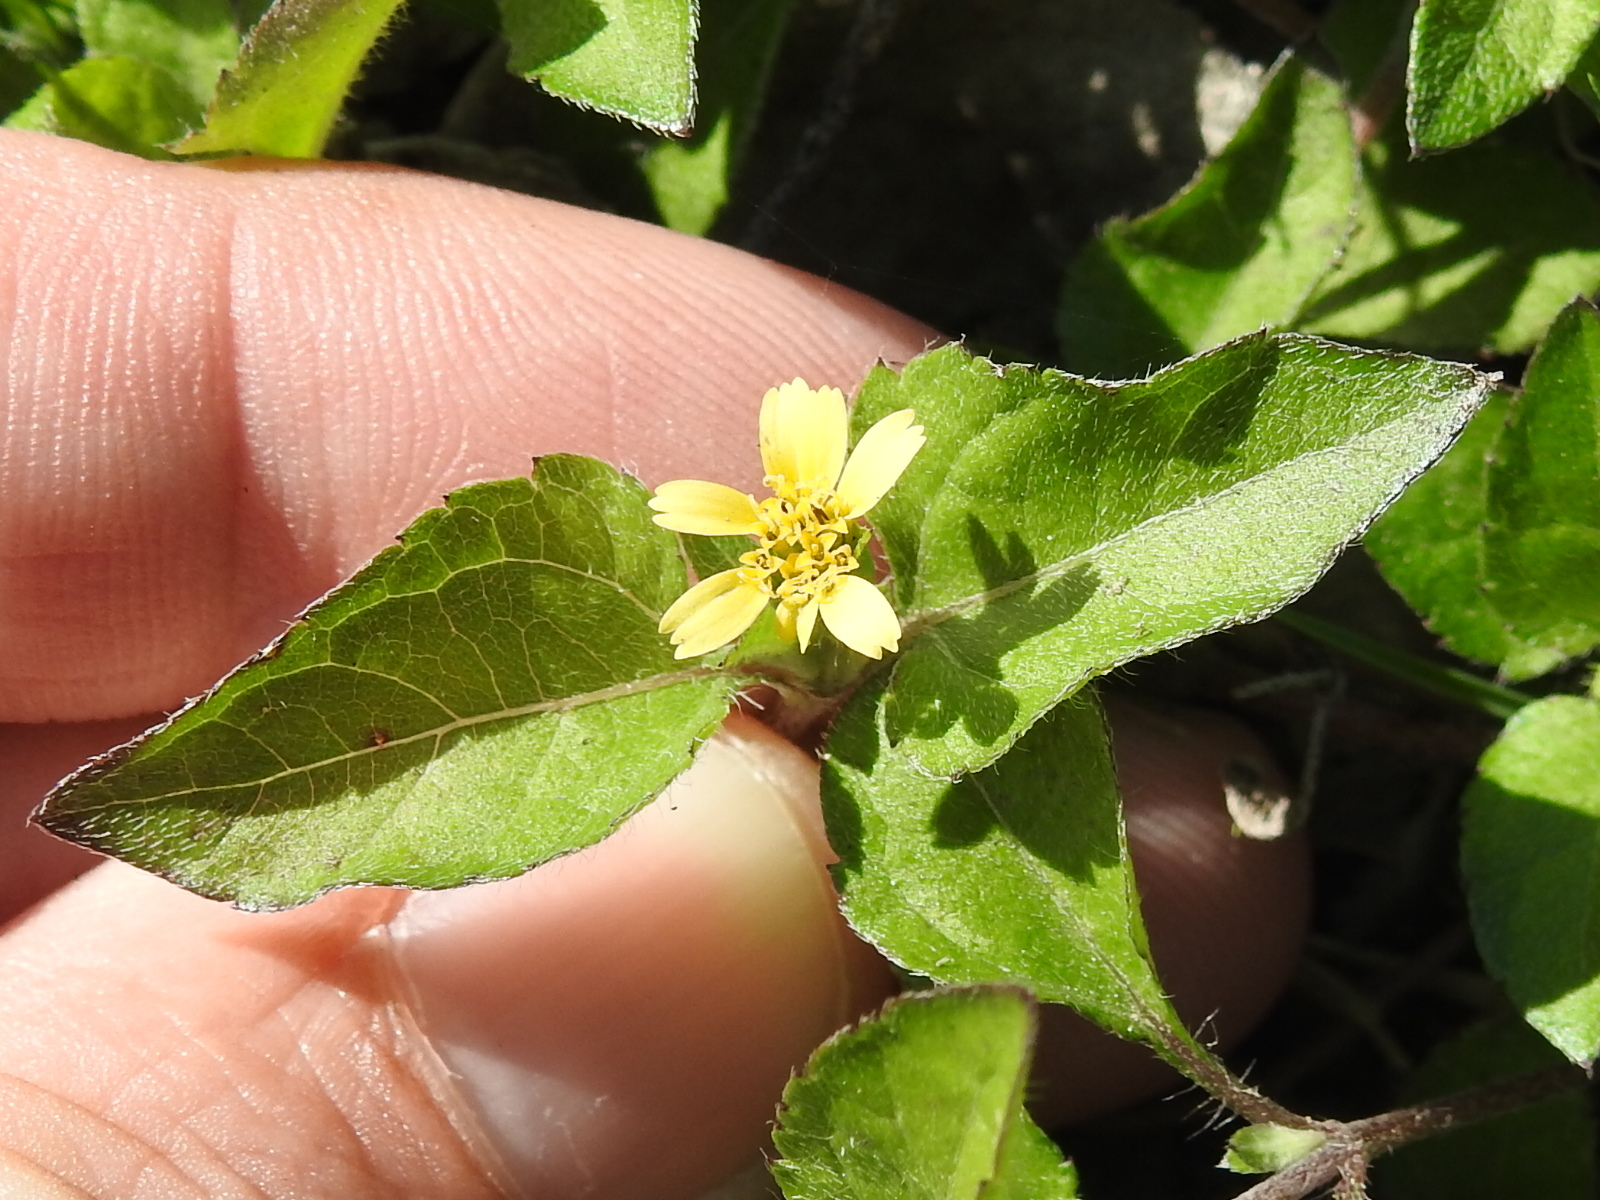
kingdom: Plantae
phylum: Tracheophyta
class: Magnoliopsida
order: Asterales
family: Asteraceae
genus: Calyptocarpus
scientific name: Calyptocarpus vialis
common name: Straggler daisy
